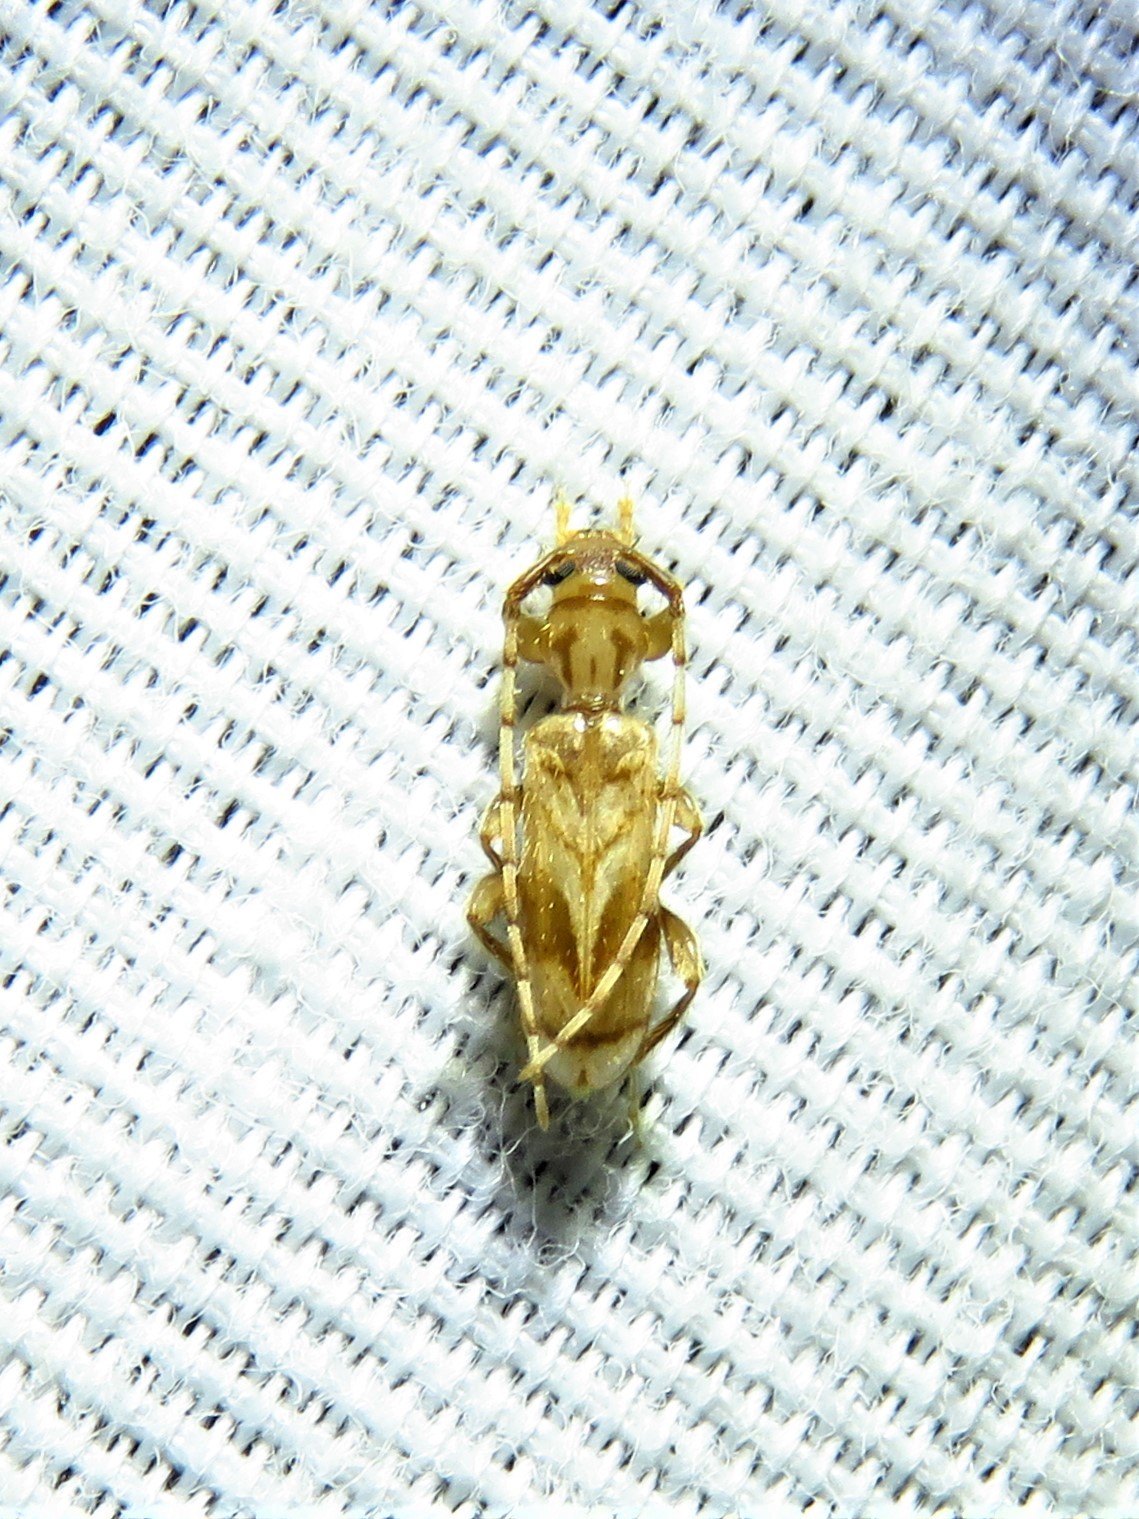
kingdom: Animalia
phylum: Arthropoda
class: Insecta
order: Coleoptera
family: Cerambycidae
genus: Obrium
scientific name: Obrium maculatum
